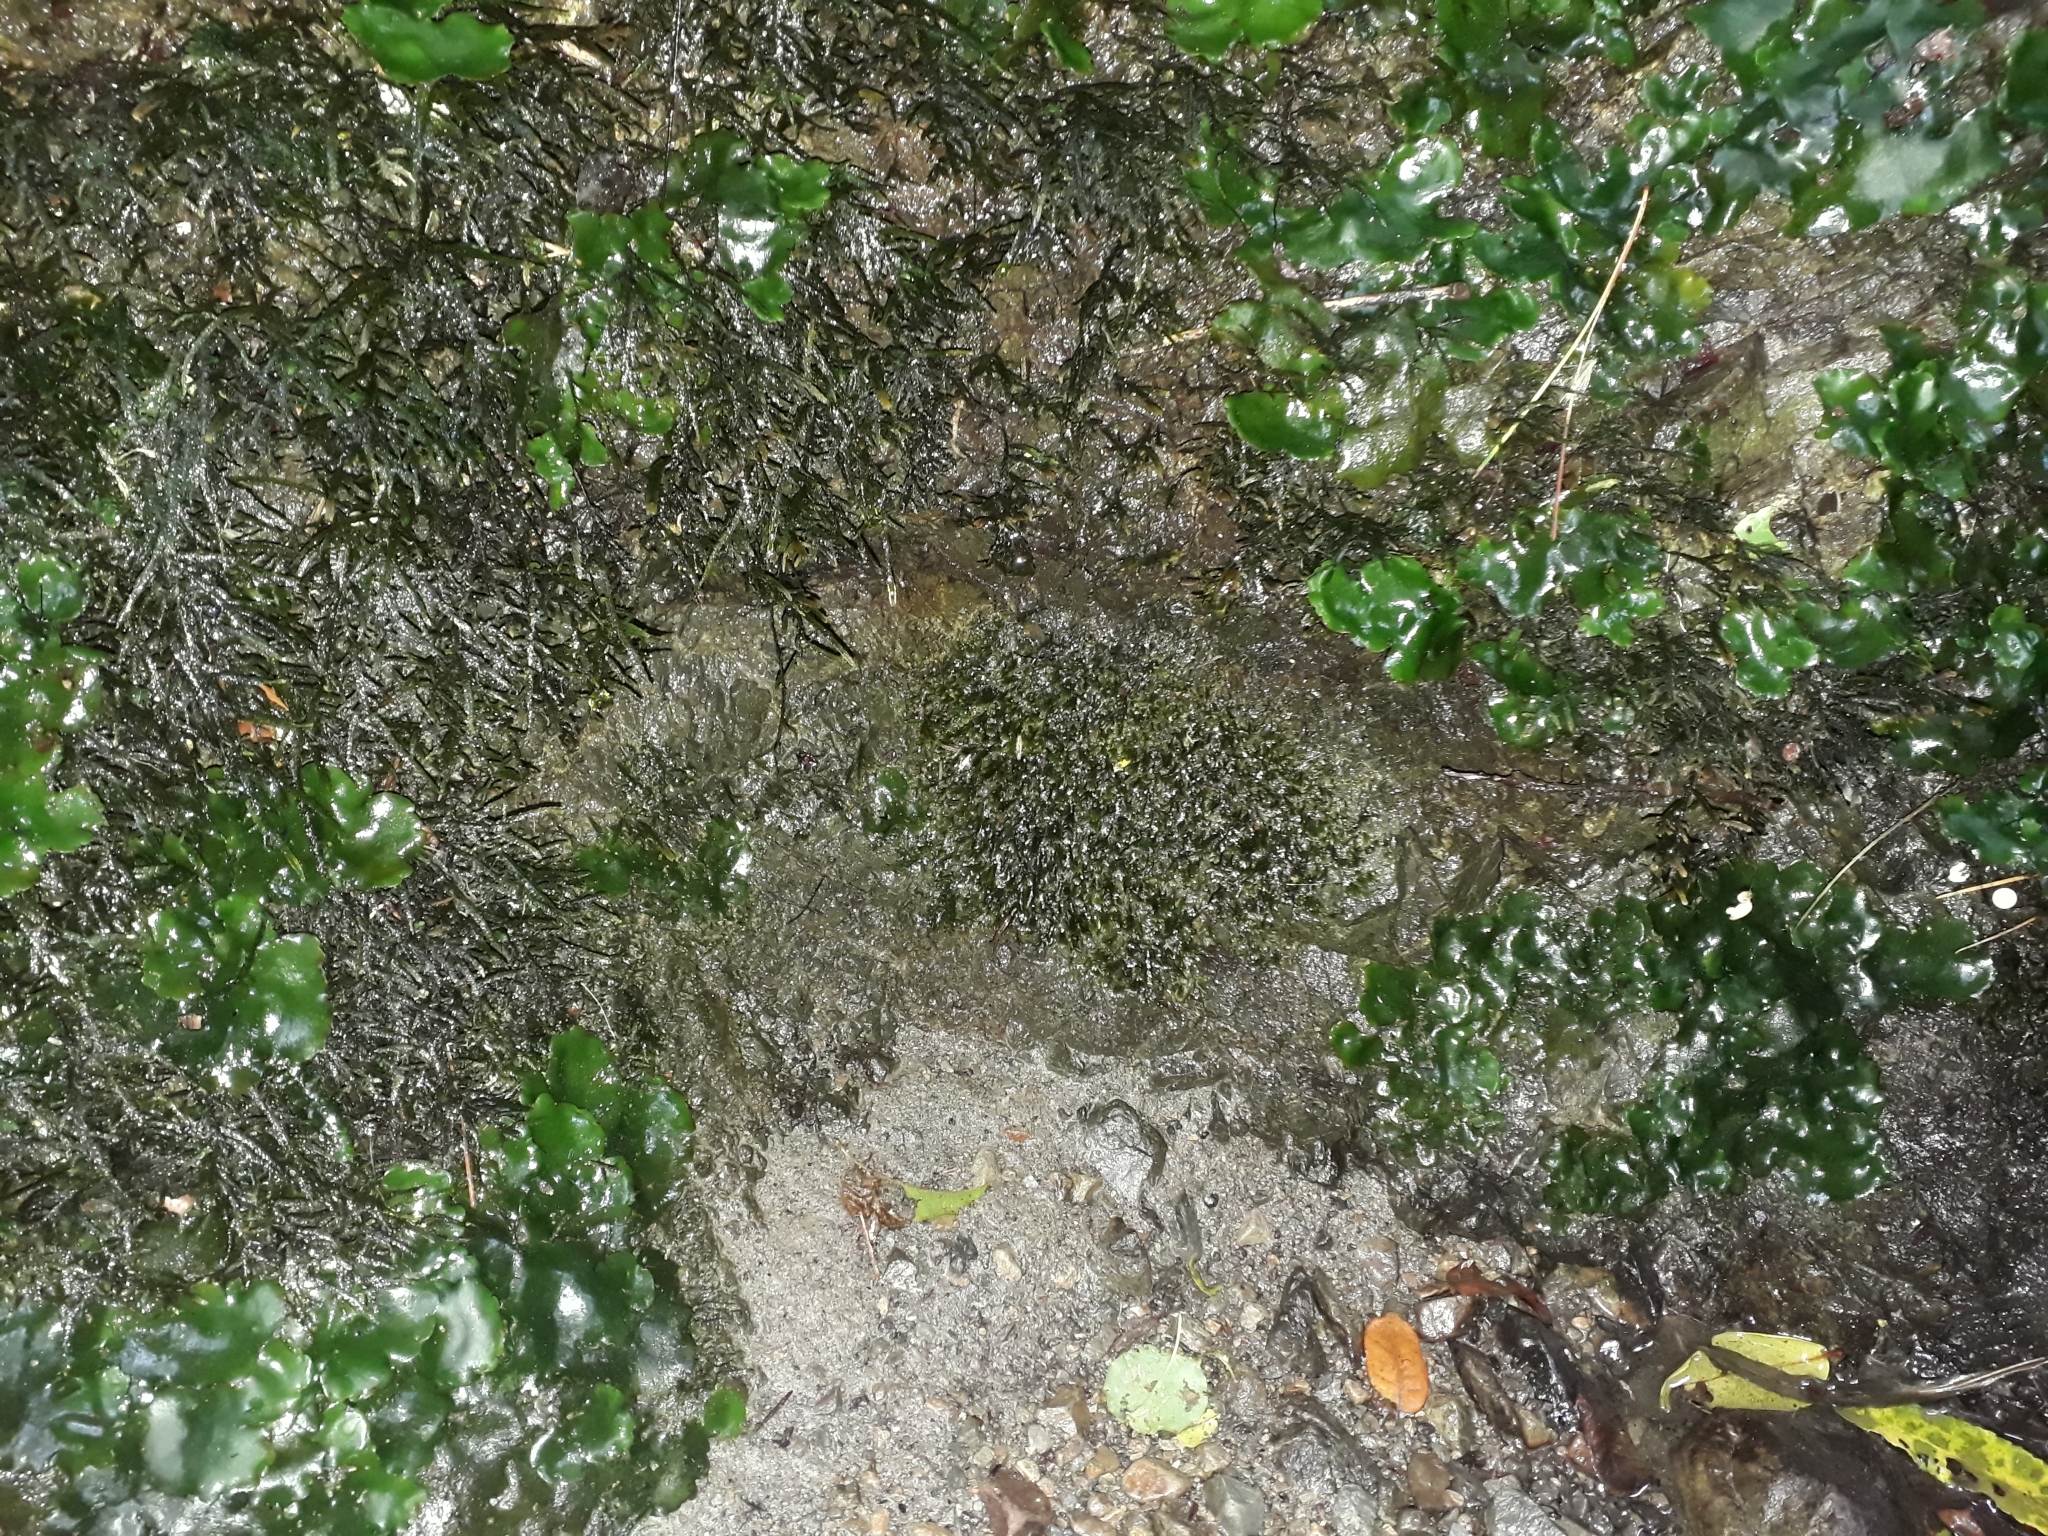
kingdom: Plantae
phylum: Bryophyta
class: Bryopsida
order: Dicranales
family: Fissidentaceae
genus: Fissidens
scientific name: Fissidens rigidulus
